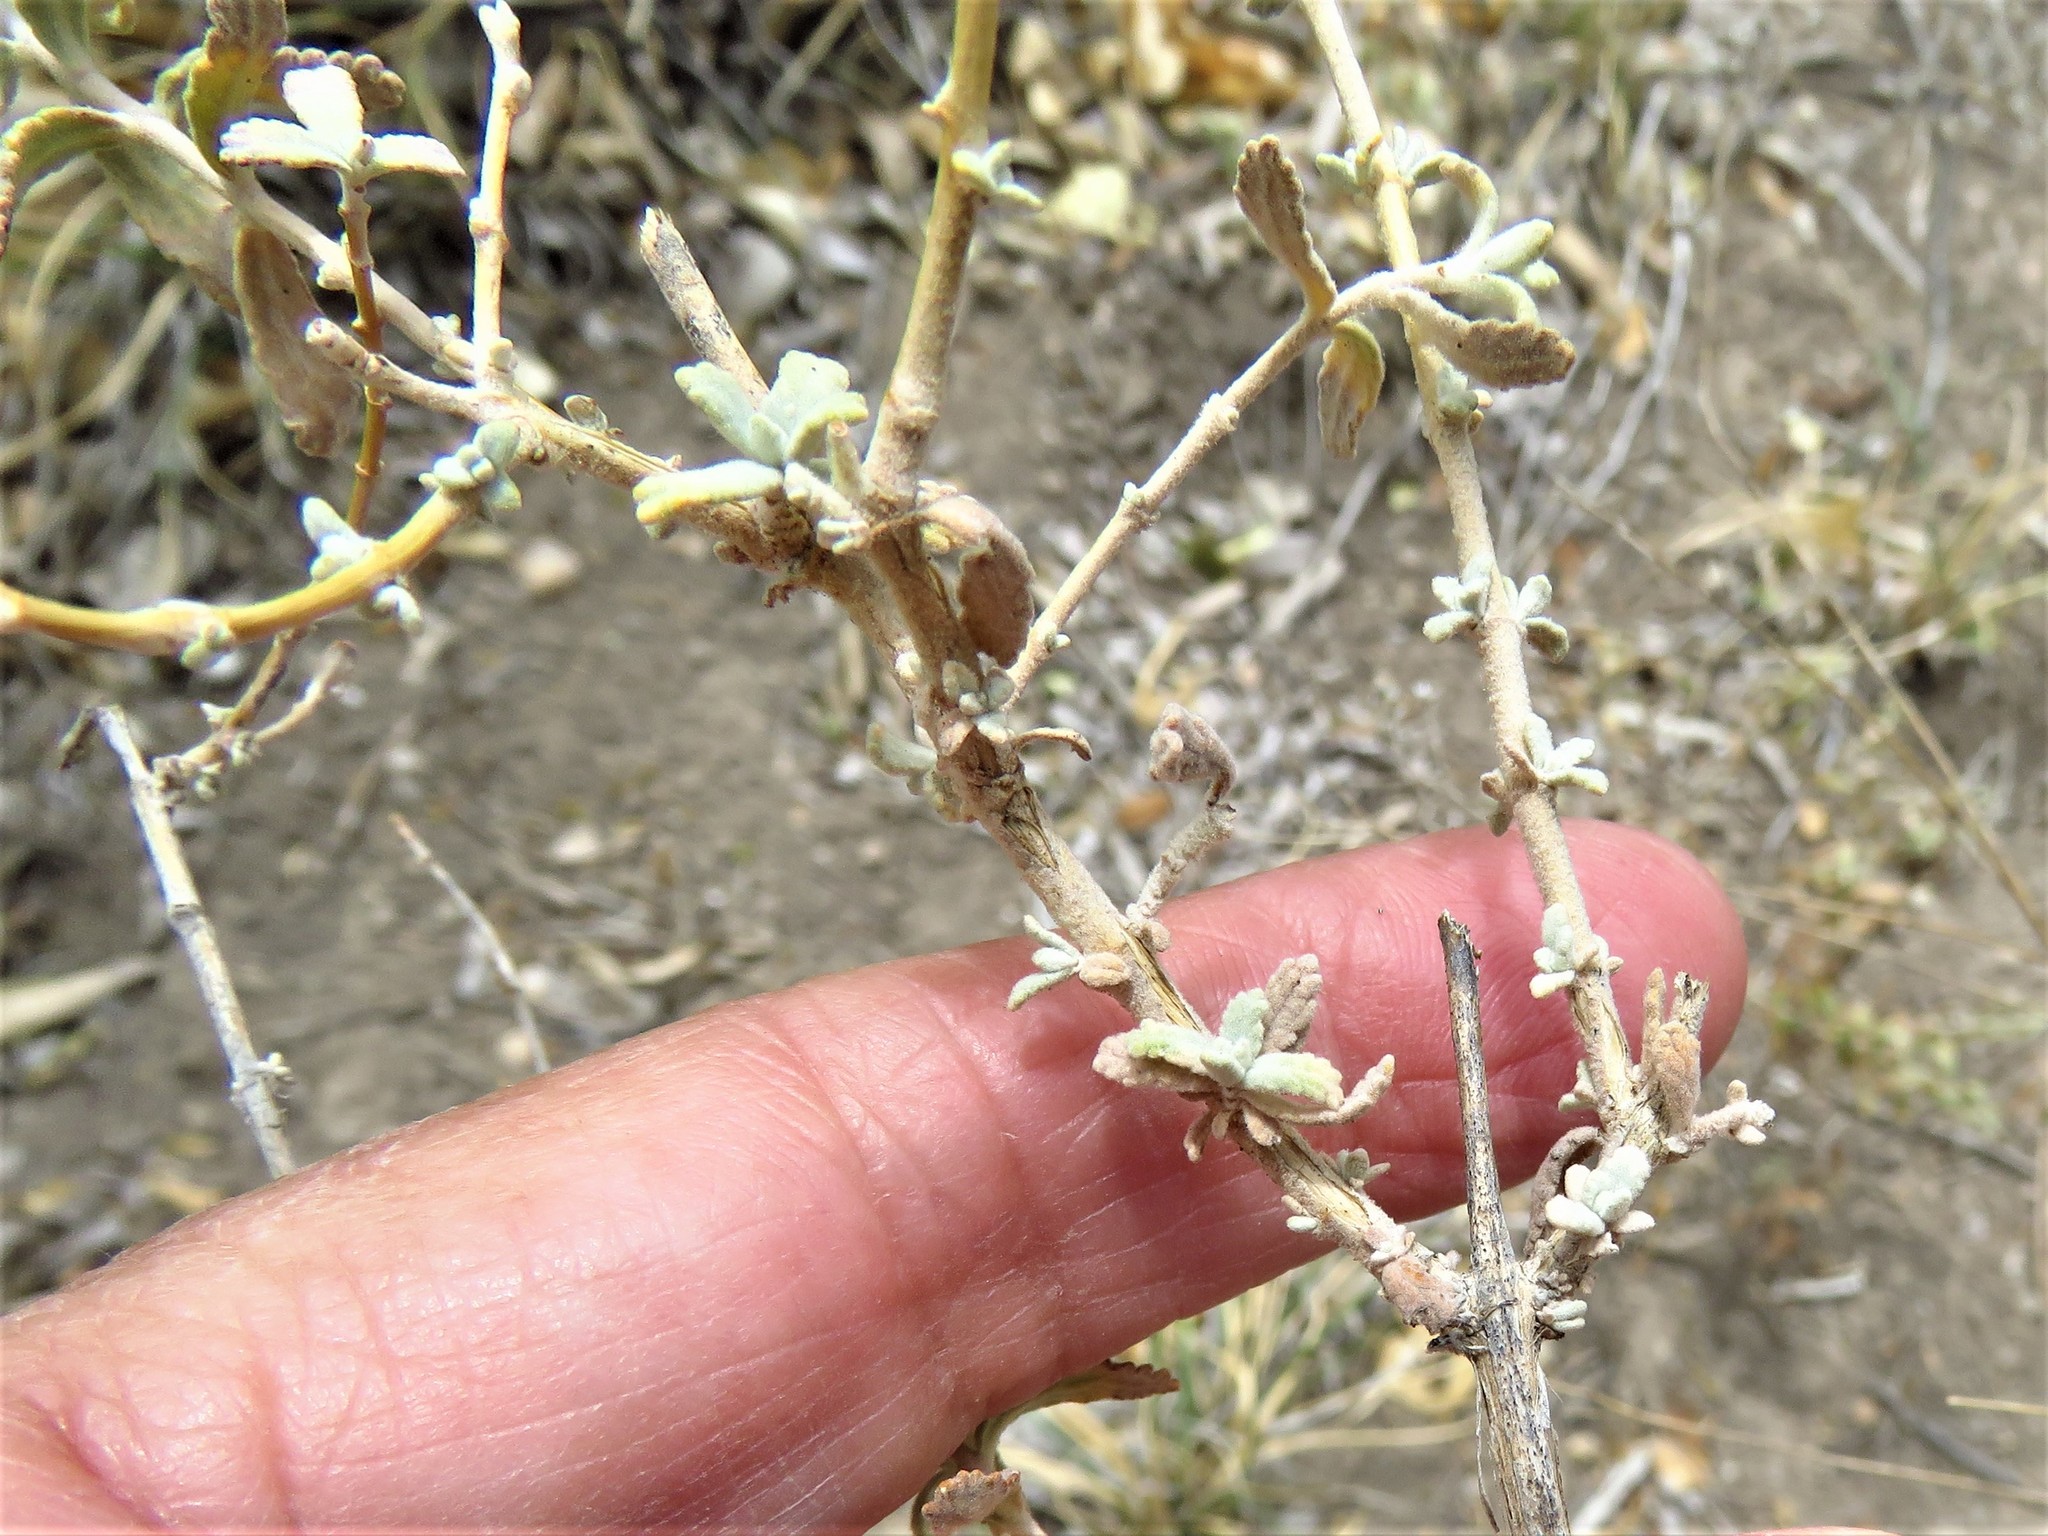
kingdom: Plantae
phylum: Tracheophyta
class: Magnoliopsida
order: Lamiales
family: Scrophulariaceae
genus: Buddleja
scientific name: Buddleja scordioides
